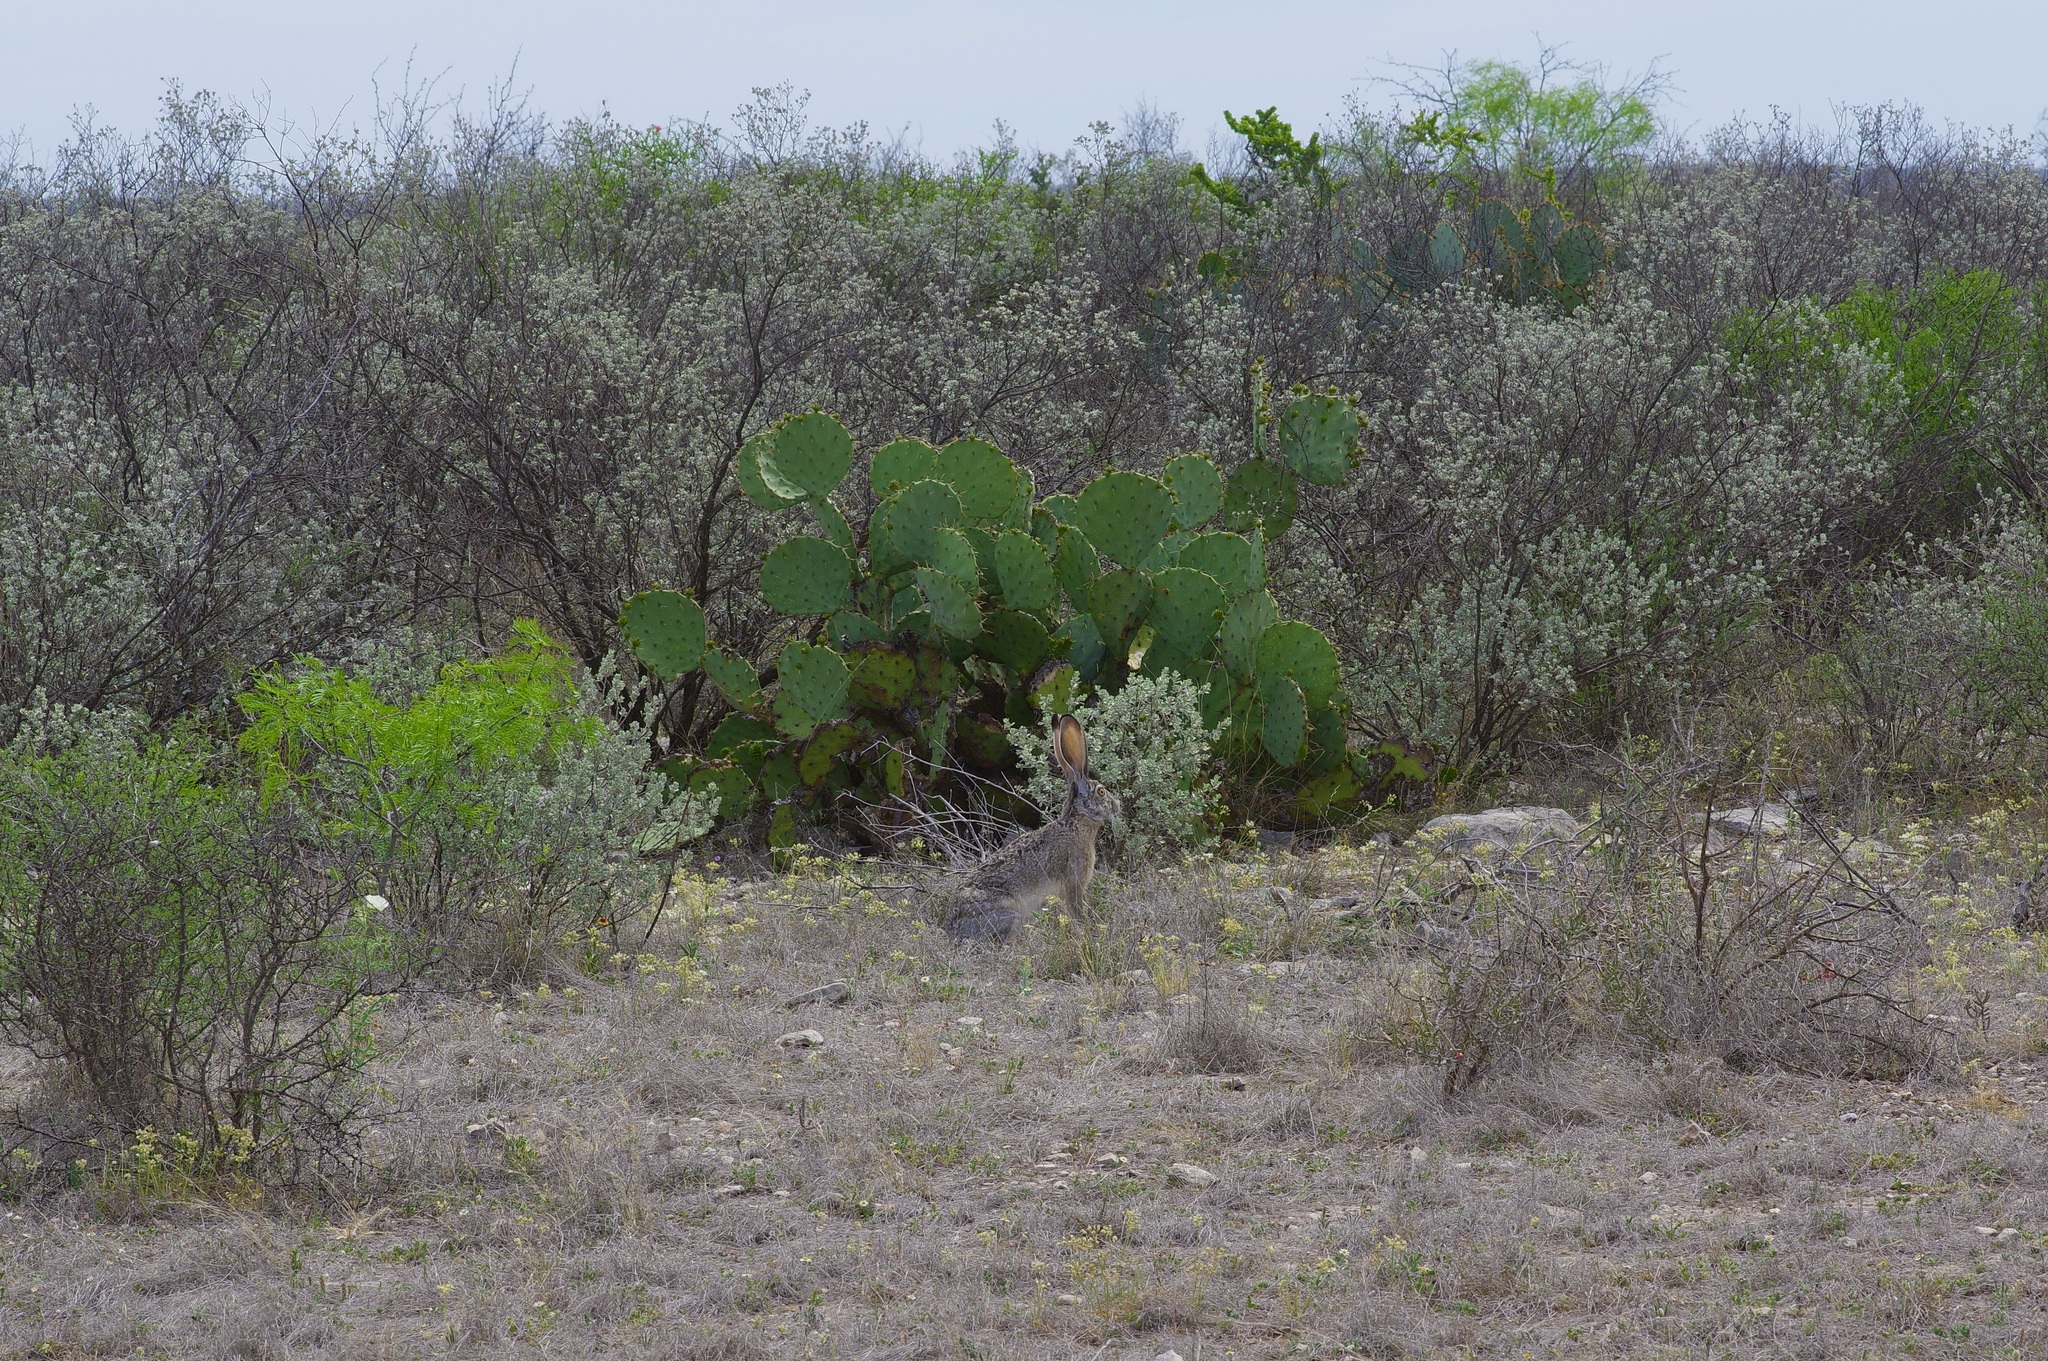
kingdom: Animalia
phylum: Chordata
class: Mammalia
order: Lagomorpha
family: Leporidae
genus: Lepus
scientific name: Lepus californicus
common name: Black-tailed jackrabbit
